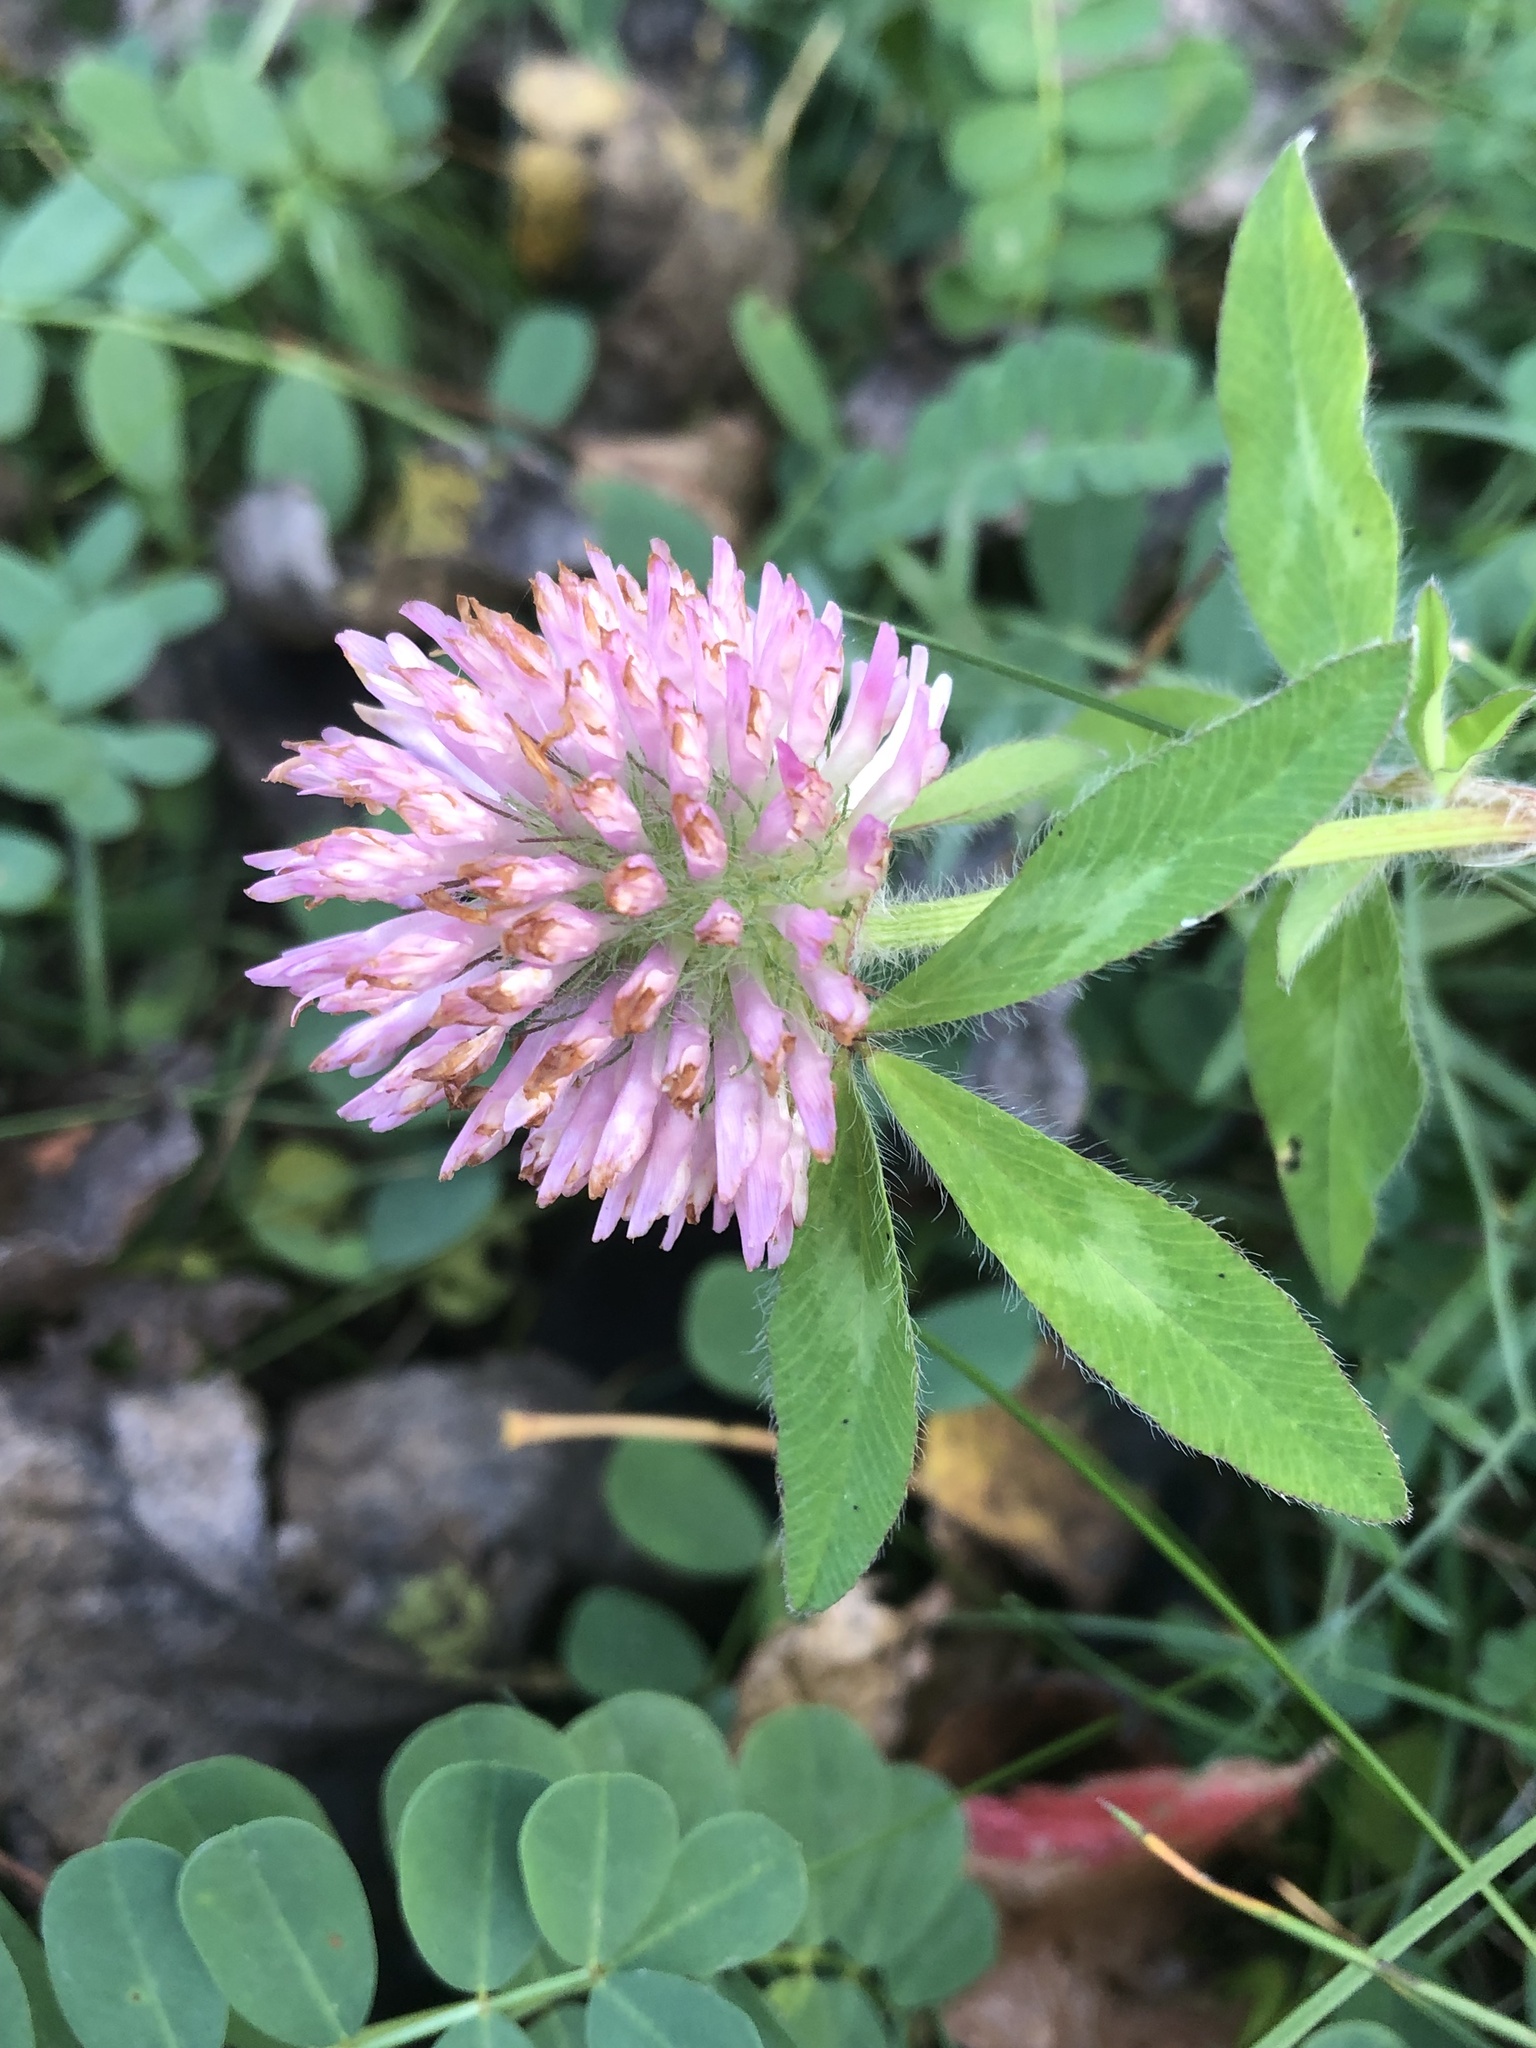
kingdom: Plantae
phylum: Tracheophyta
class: Magnoliopsida
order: Fabales
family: Fabaceae
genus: Trifolium
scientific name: Trifolium pratense
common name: Red clover
